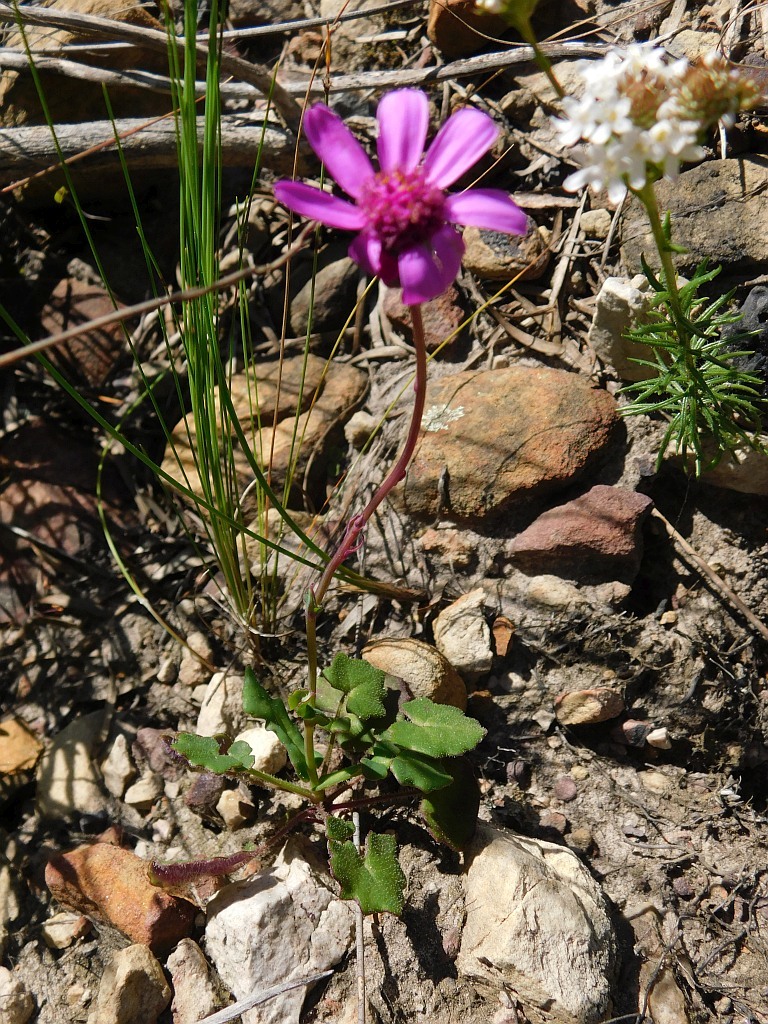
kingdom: Plantae
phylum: Tracheophyta
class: Magnoliopsida
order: Asterales
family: Asteraceae
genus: Senecio
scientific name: Senecio cymbalariifolius
